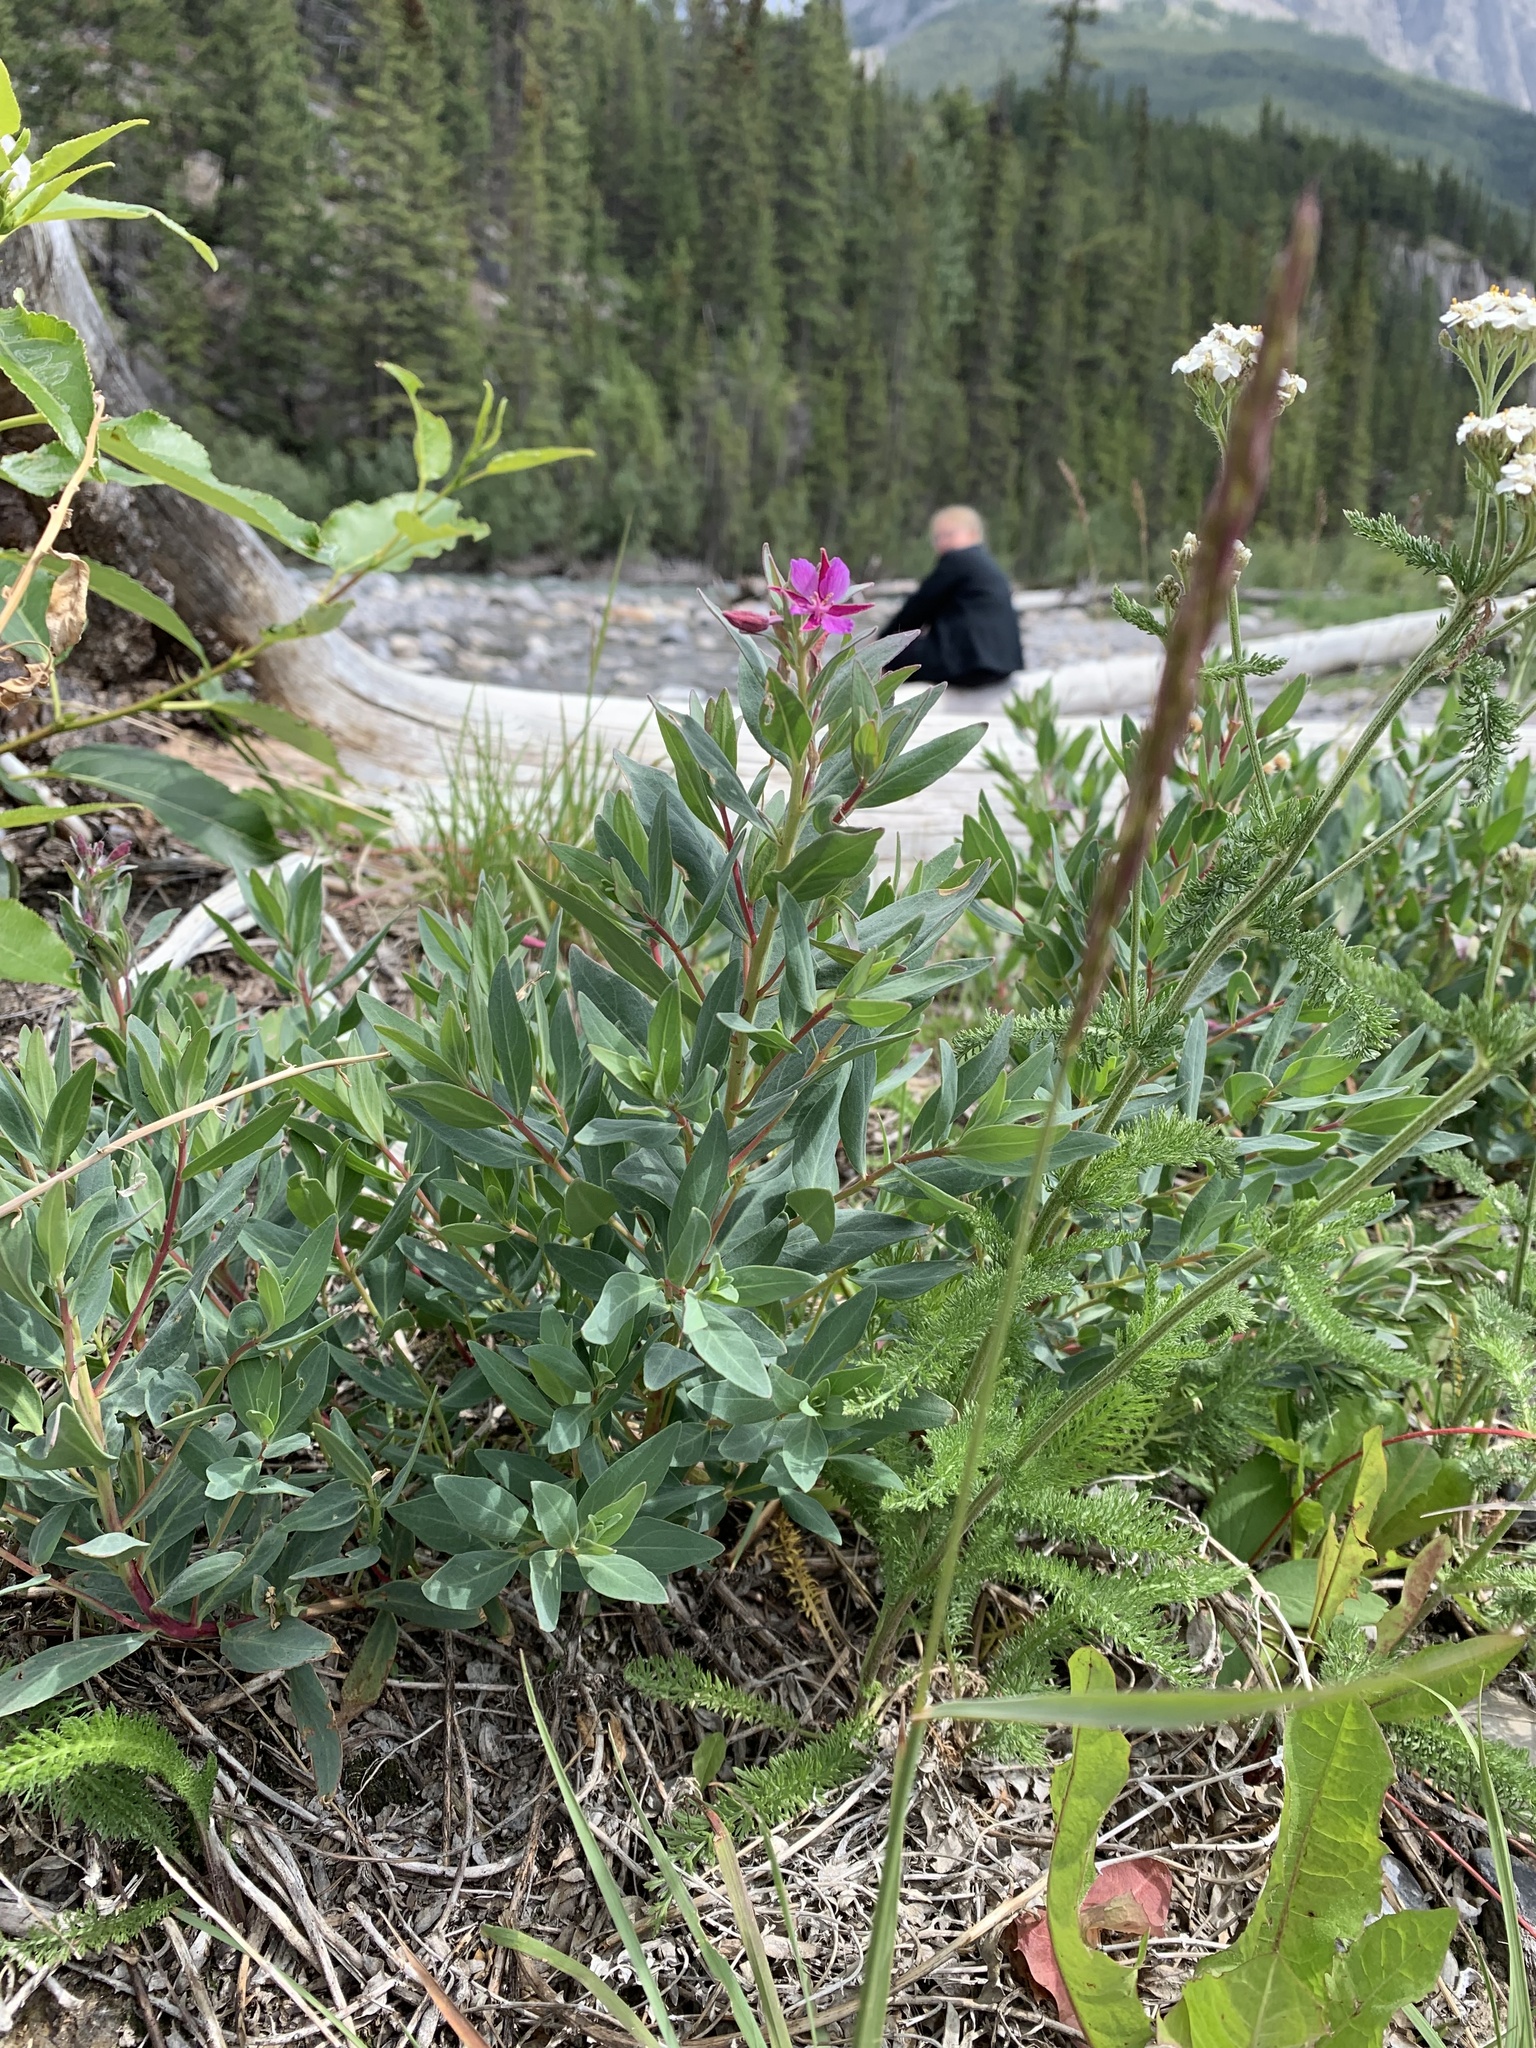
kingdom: Plantae
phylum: Tracheophyta
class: Magnoliopsida
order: Myrtales
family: Onagraceae
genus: Chamaenerion
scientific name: Chamaenerion latifolium
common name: Dwarf fireweed
